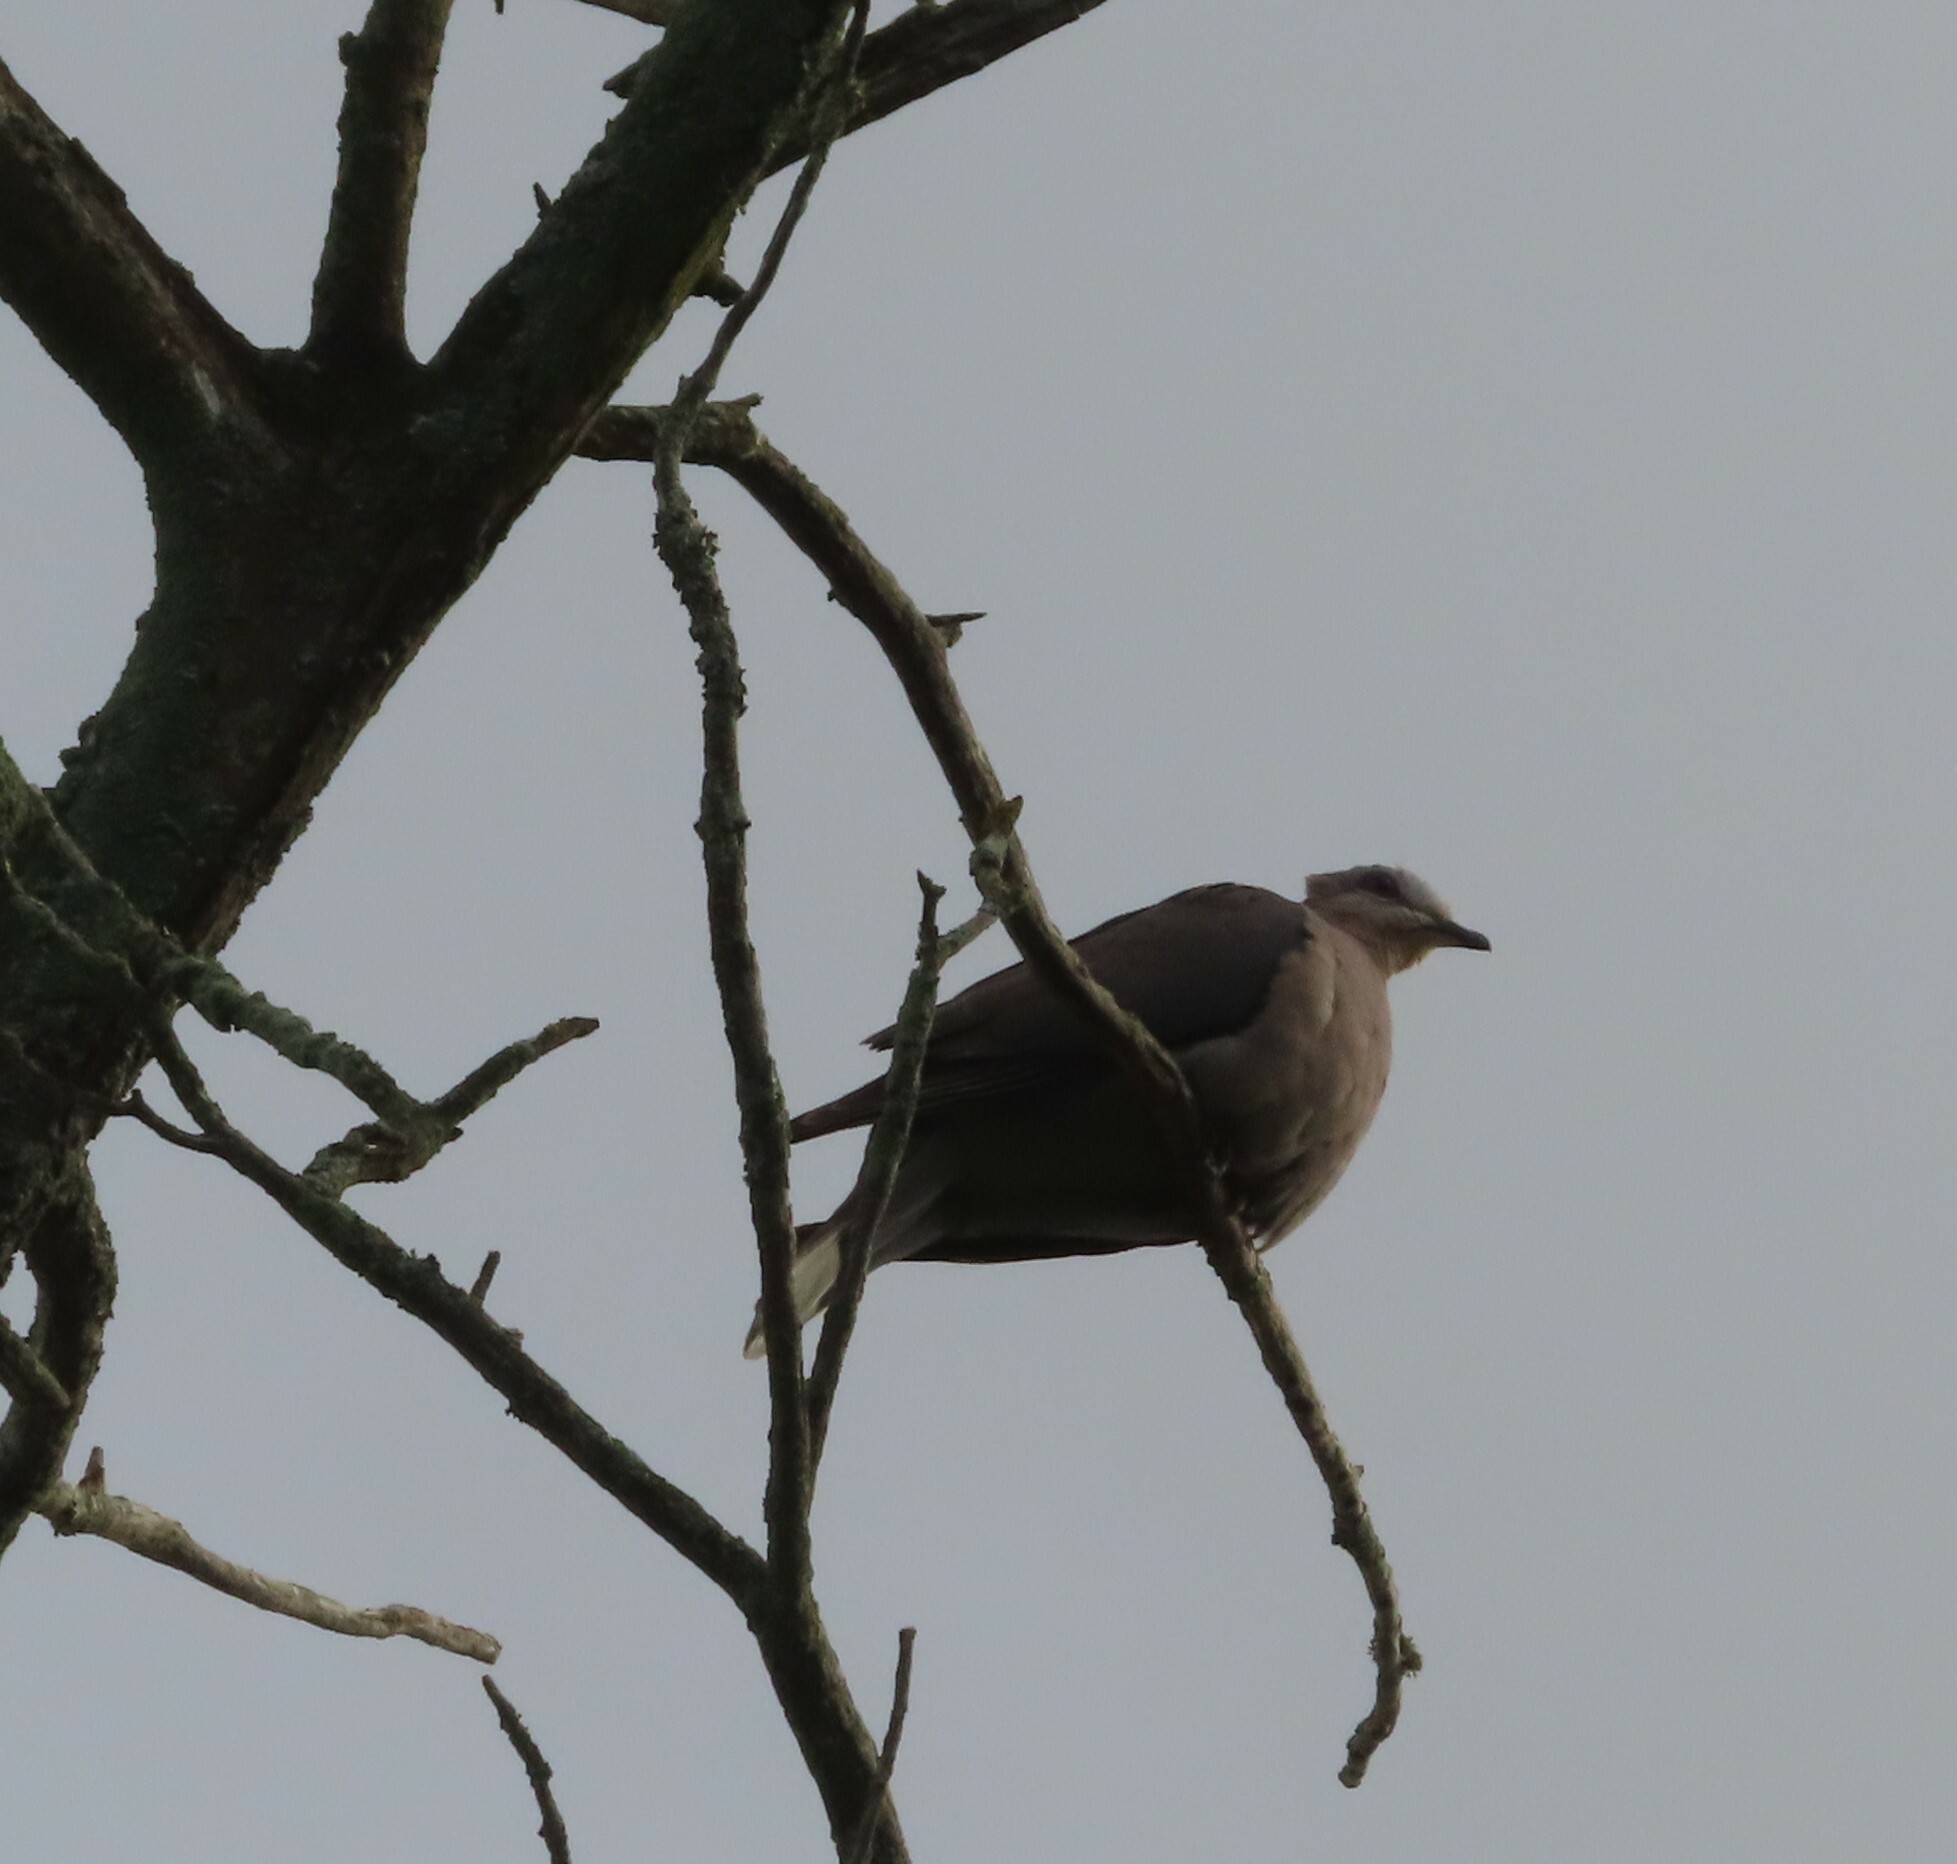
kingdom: Animalia
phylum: Chordata
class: Aves
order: Columbiformes
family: Columbidae
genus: Streptopelia
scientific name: Streptopelia semitorquata
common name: Red-eyed dove
